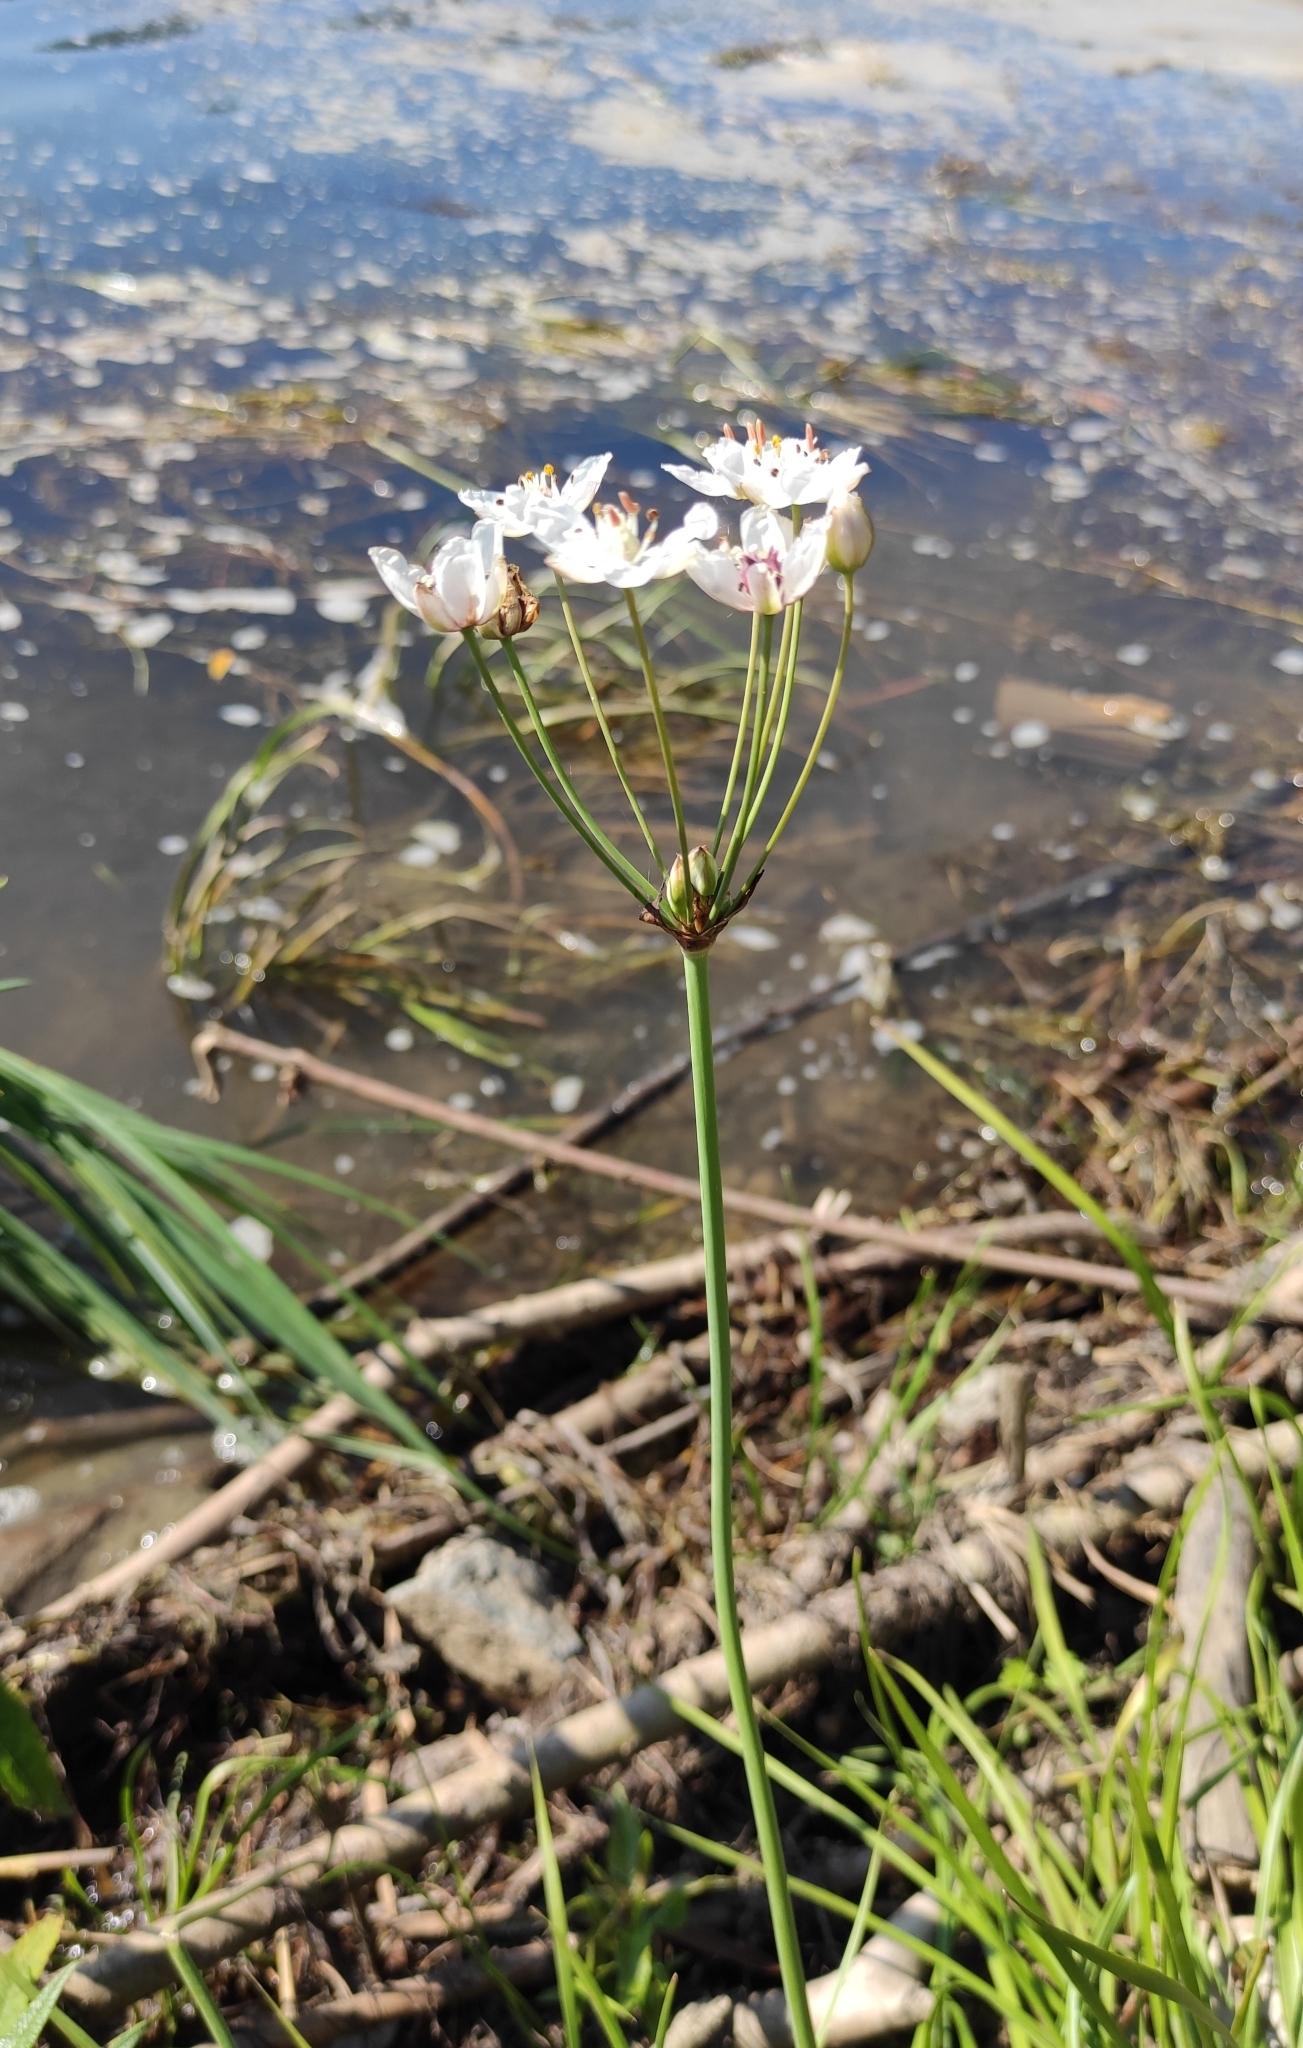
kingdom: Plantae
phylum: Tracheophyta
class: Liliopsida
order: Alismatales
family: Butomaceae
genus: Butomus
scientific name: Butomus umbellatus
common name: Flowering-rush
